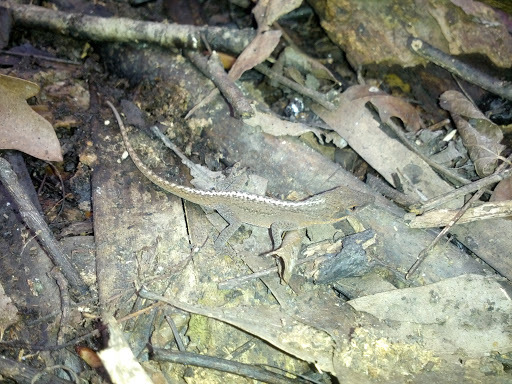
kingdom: Animalia
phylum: Chordata
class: Squamata
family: Dactyloidae
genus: Anolis
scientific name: Anolis carolinensis
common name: Green anole
